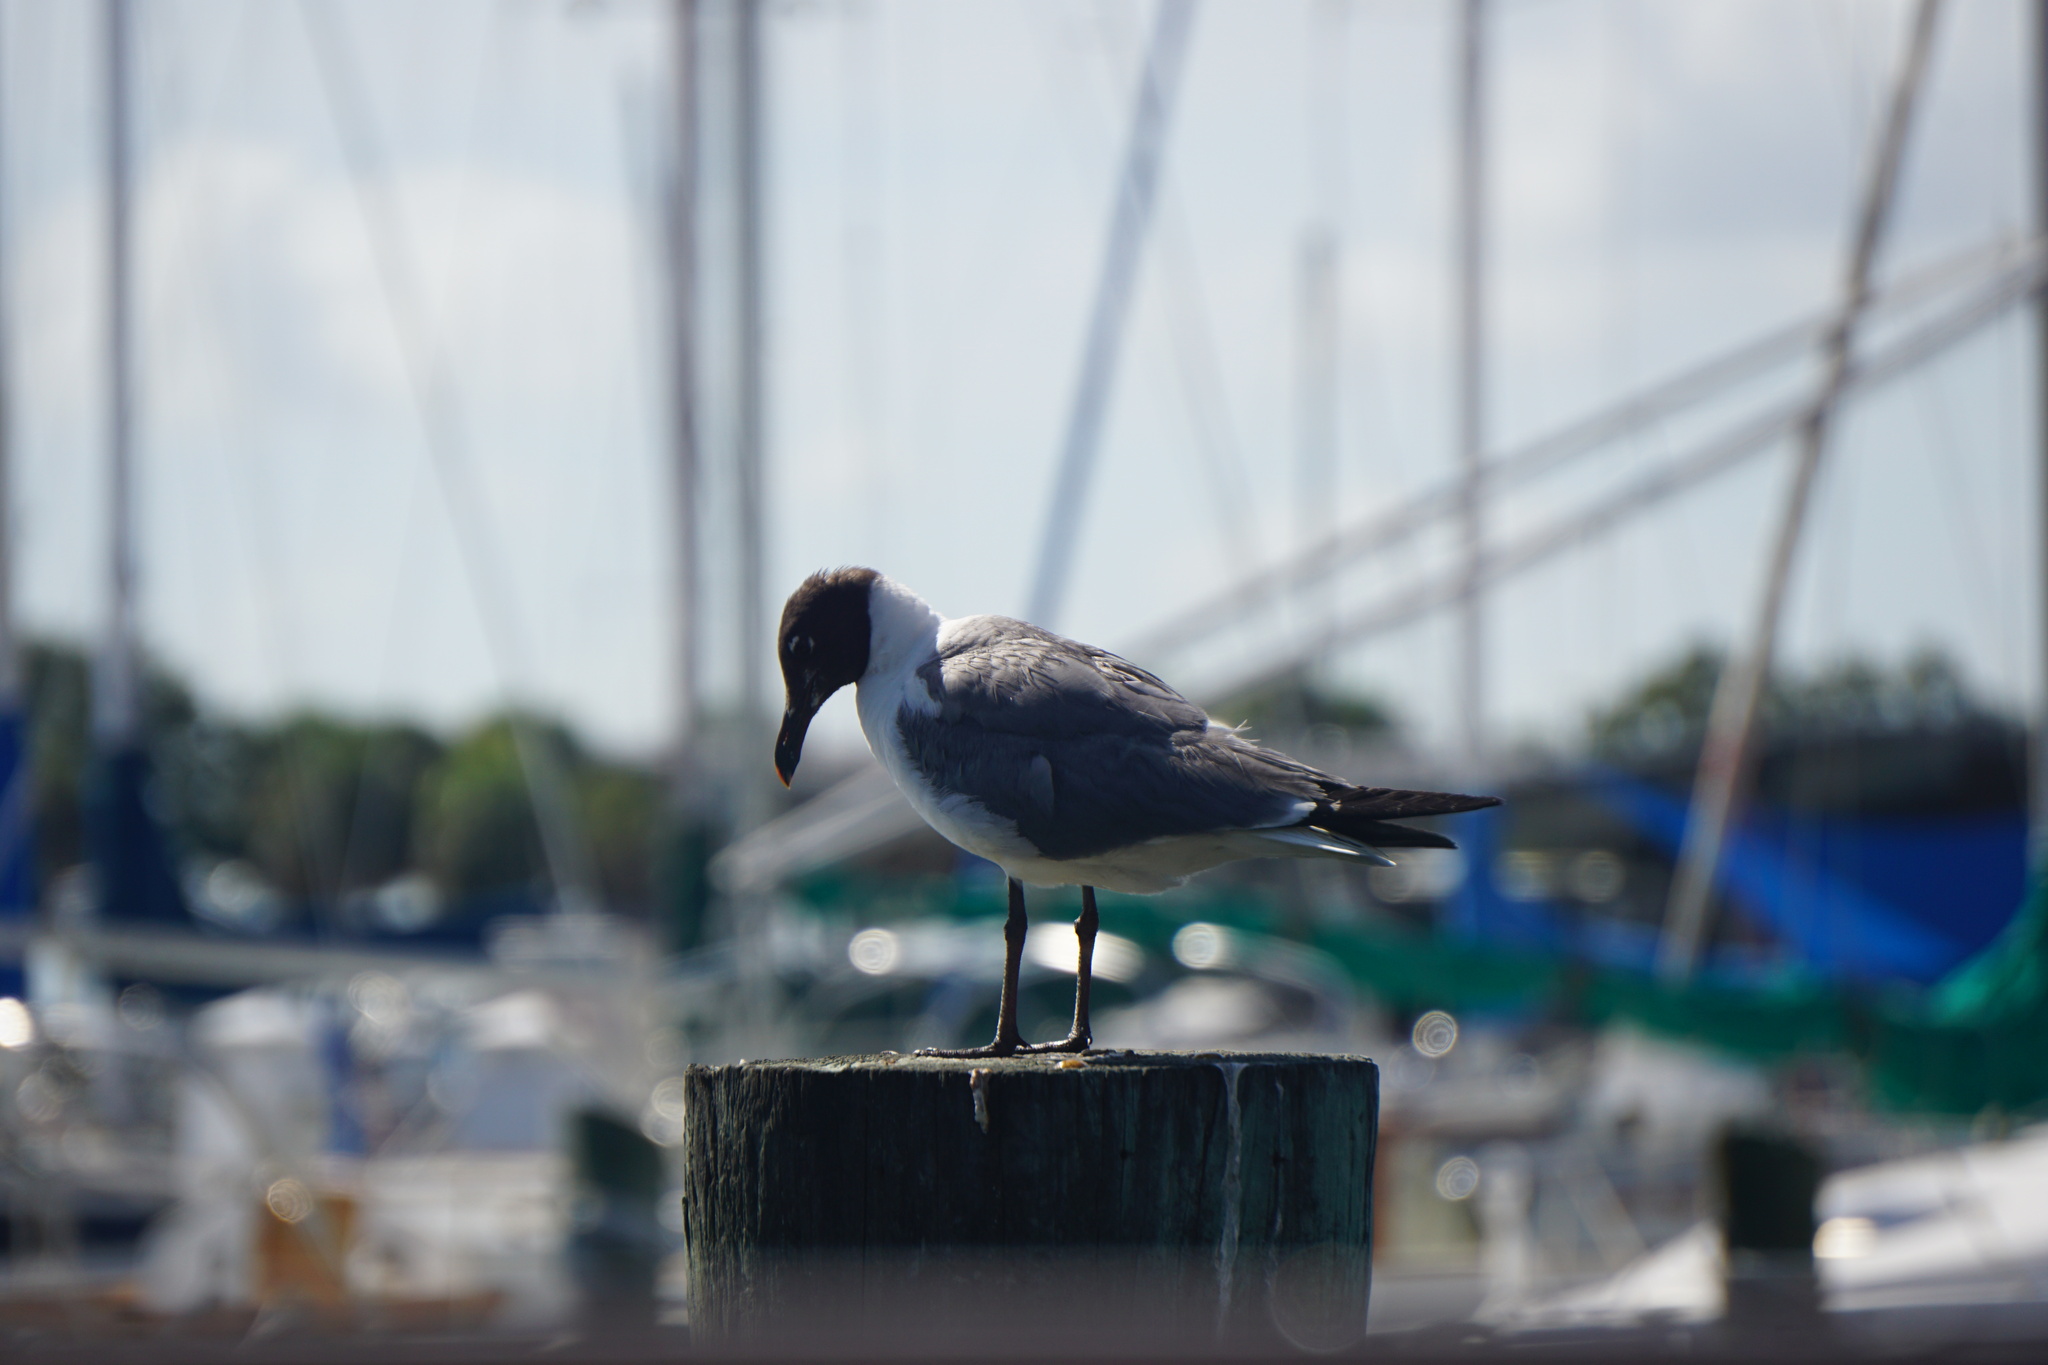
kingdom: Animalia
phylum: Chordata
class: Aves
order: Charadriiformes
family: Laridae
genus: Leucophaeus
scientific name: Leucophaeus atricilla
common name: Laughing gull
